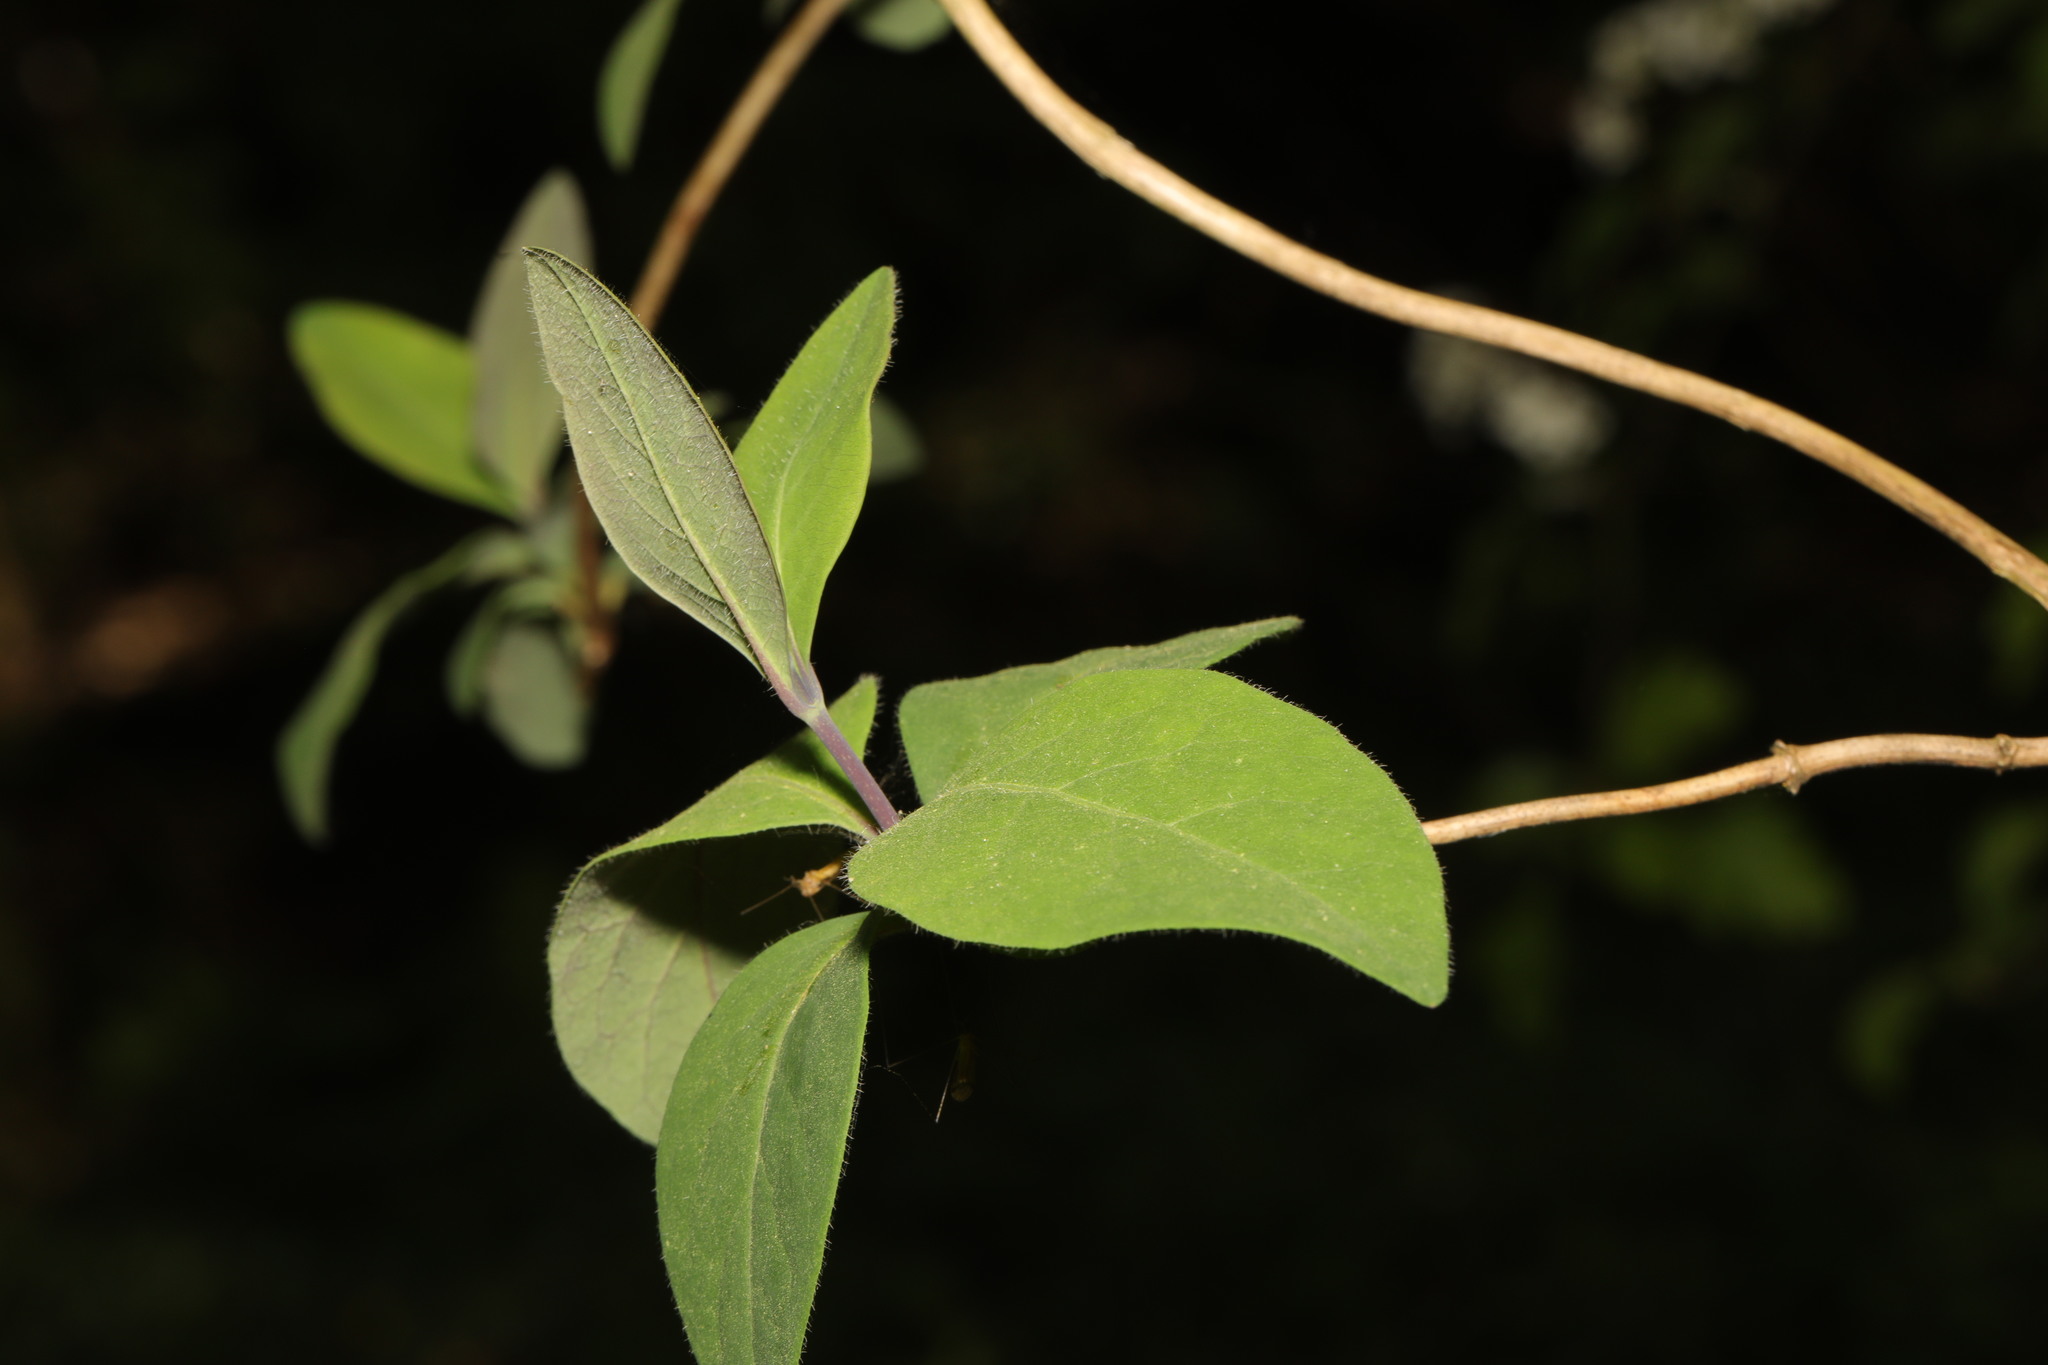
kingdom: Plantae
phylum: Tracheophyta
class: Magnoliopsida
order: Dipsacales
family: Caprifoliaceae
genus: Lonicera
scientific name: Lonicera periclymenum
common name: European honeysuckle
